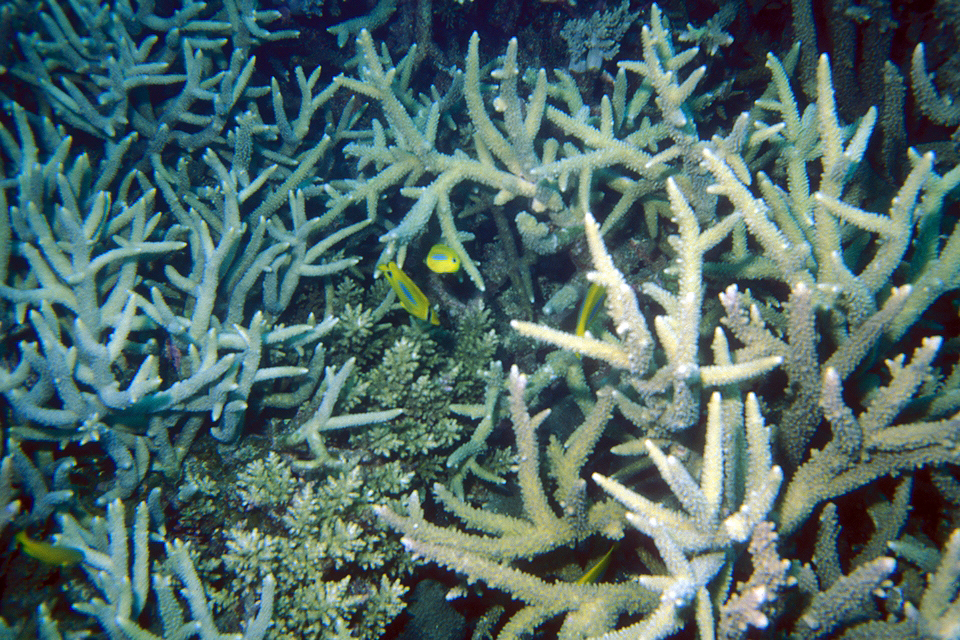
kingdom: Animalia
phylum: Chordata
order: Perciformes
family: Chaetodontidae
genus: Chaetodon
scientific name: Chaetodon plebeius
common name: Bluespot butterflyfish
